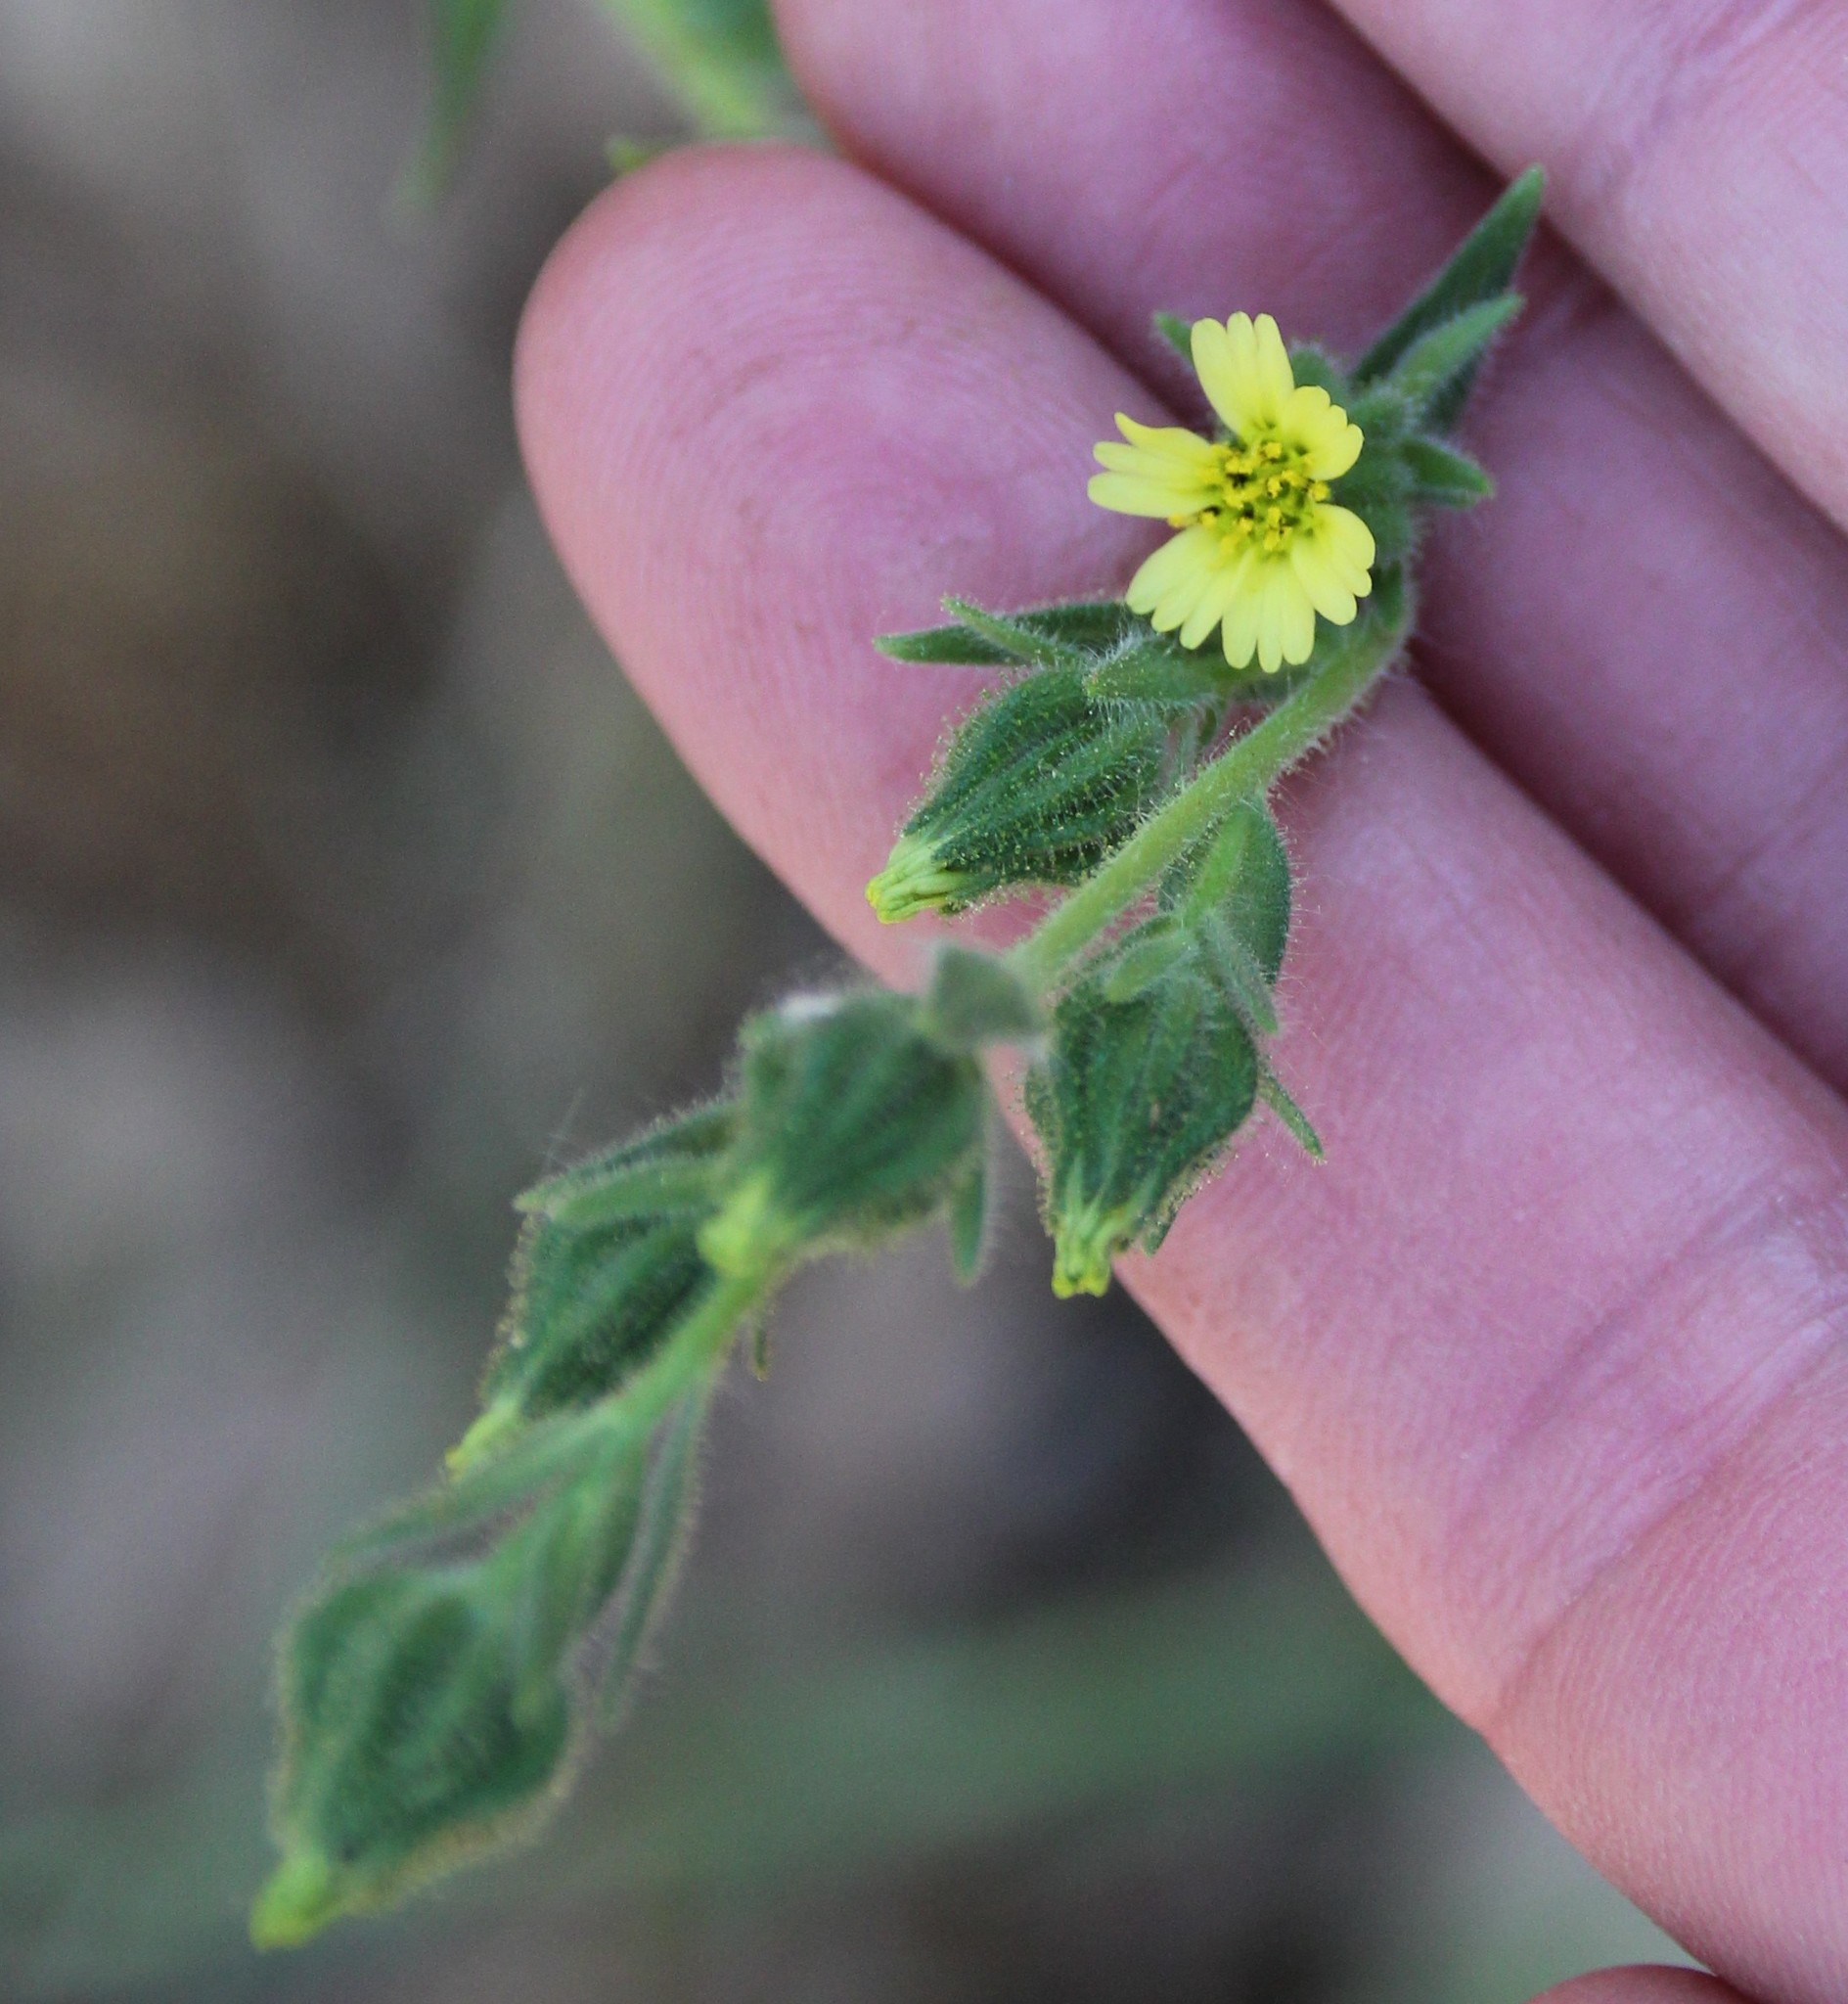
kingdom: Plantae
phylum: Tracheophyta
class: Magnoliopsida
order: Asterales
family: Asteraceae
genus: Madia
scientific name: Madia gracilis
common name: Grassy tarweed
